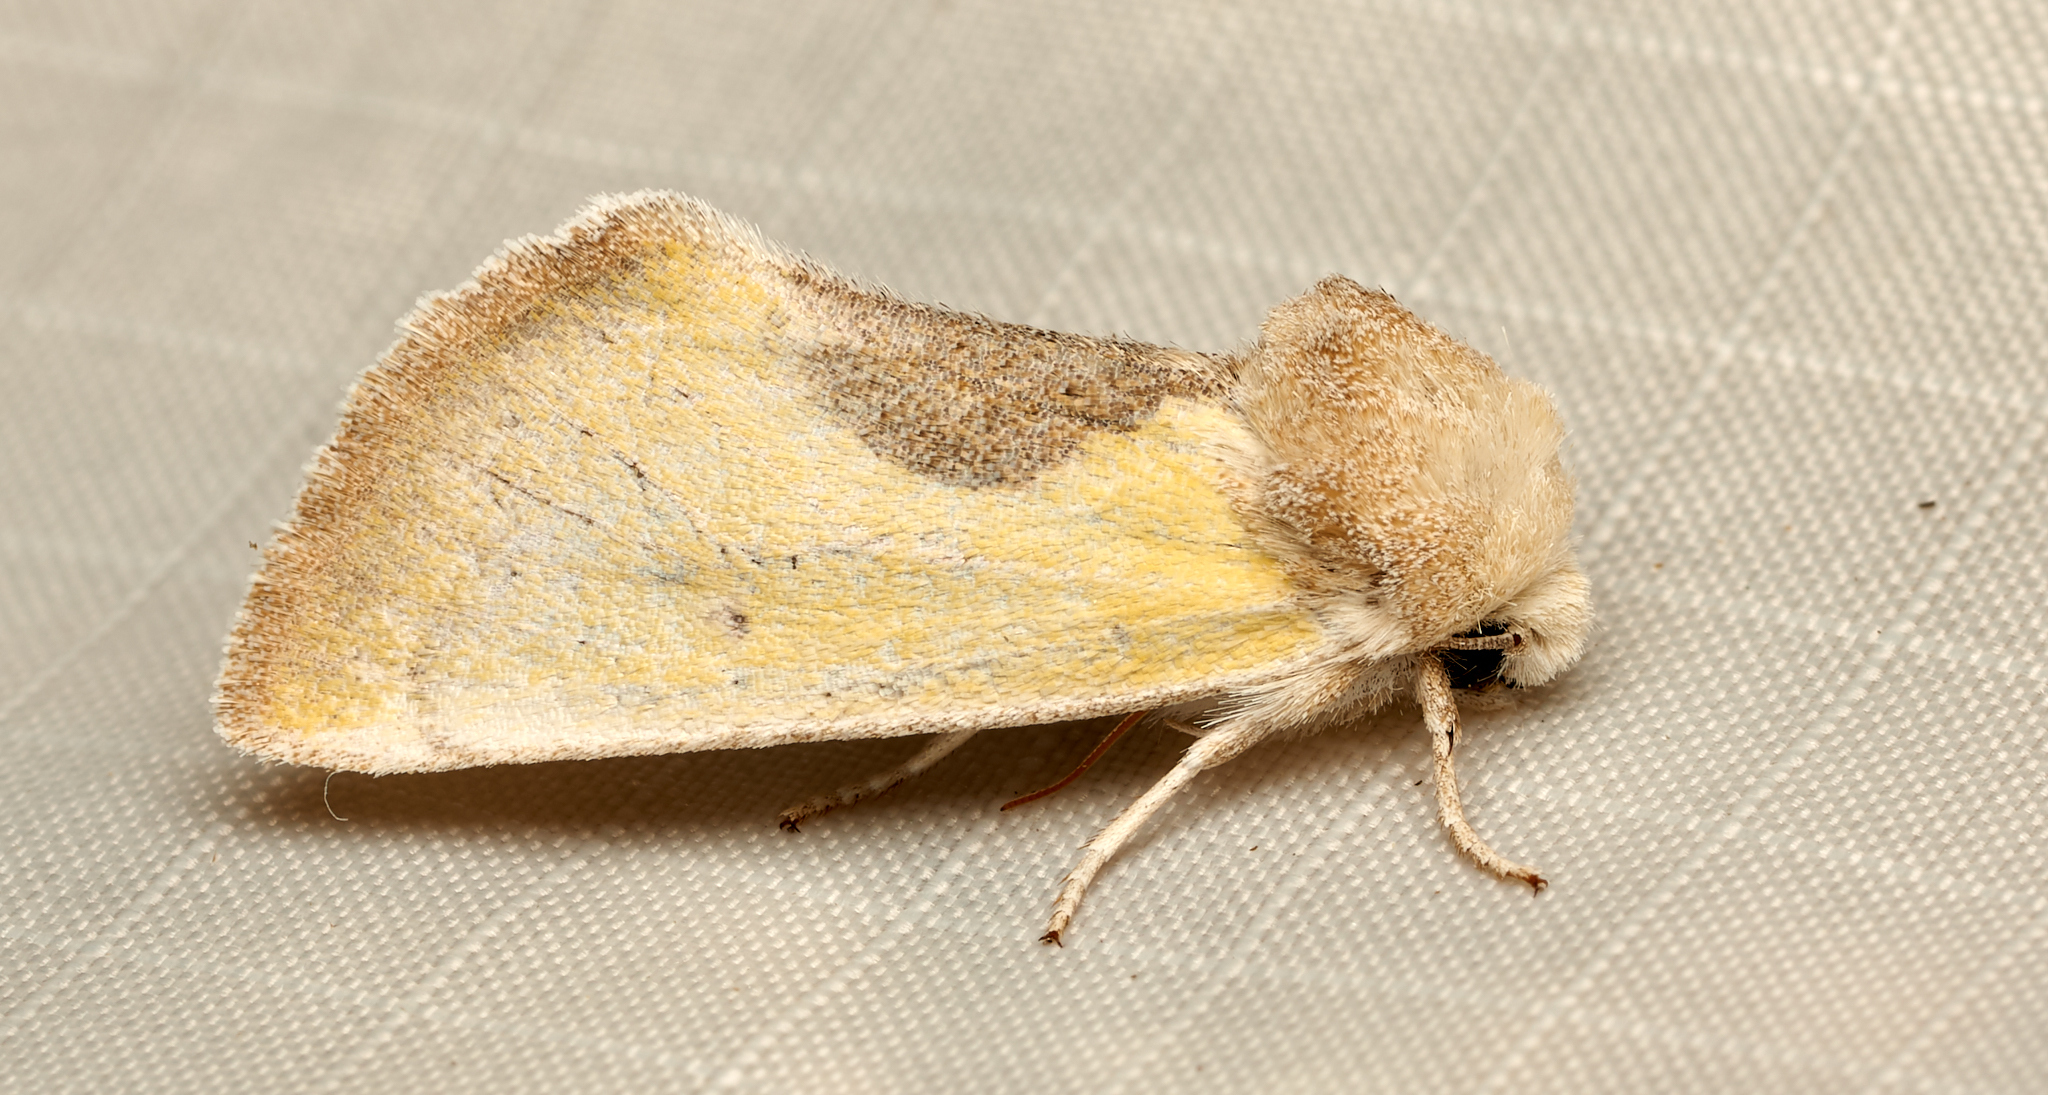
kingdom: Animalia
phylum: Arthropoda
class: Insecta
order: Lepidoptera
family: Noctuidae
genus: Stiria
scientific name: Stiria consuela
